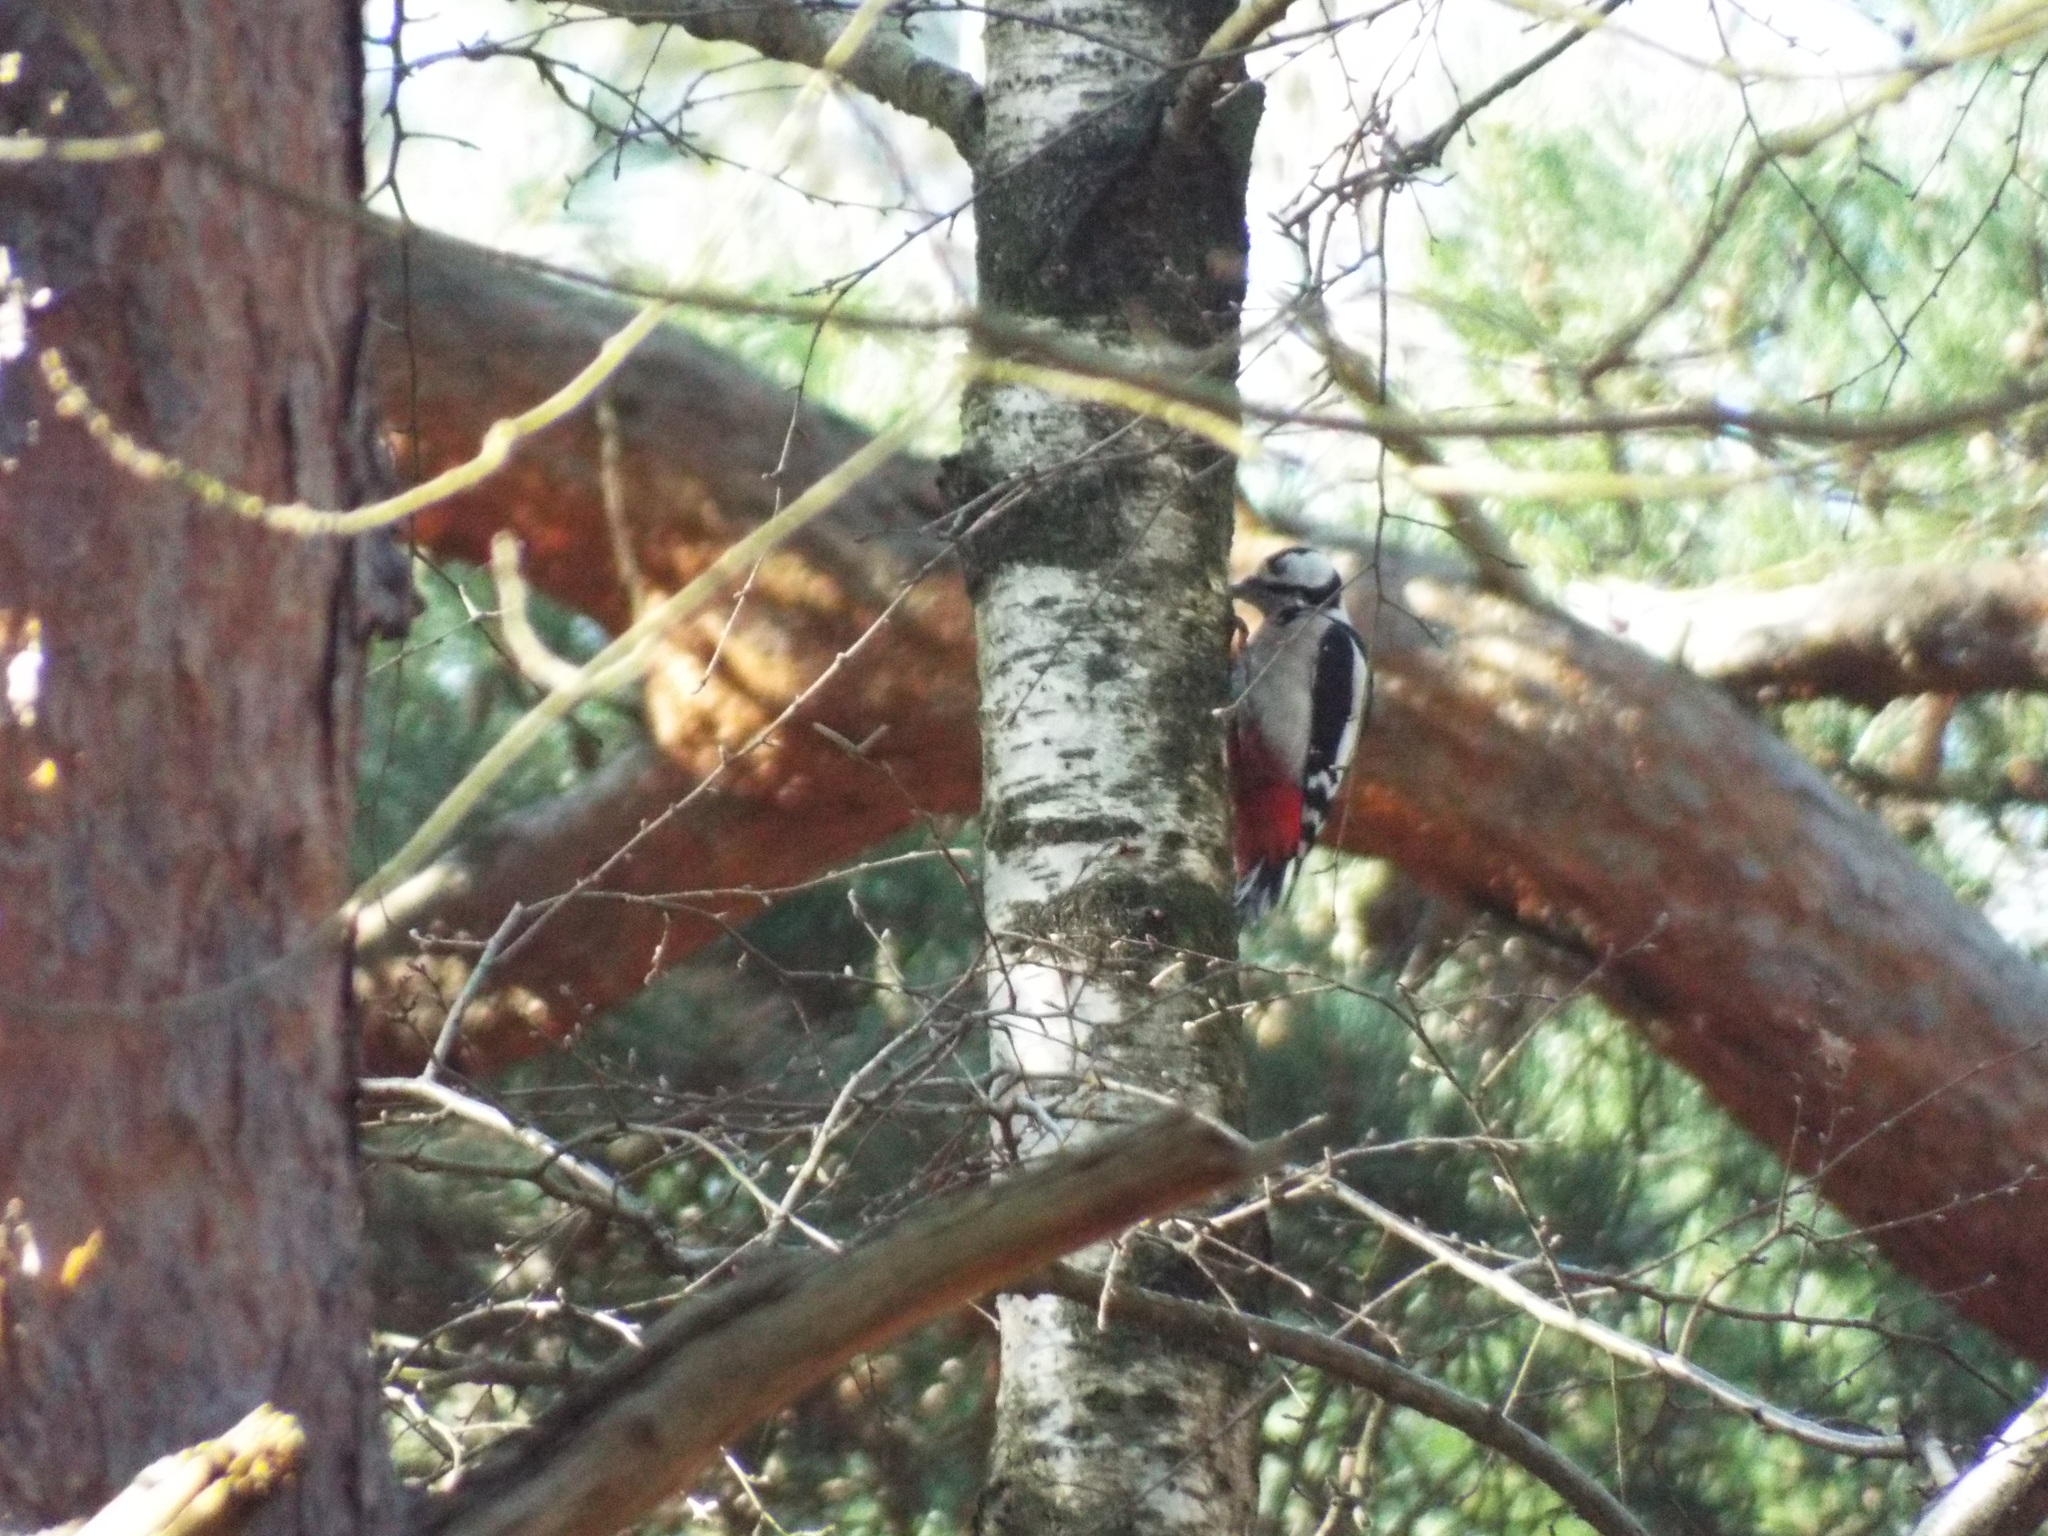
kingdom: Animalia
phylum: Chordata
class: Aves
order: Piciformes
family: Picidae
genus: Dendrocopos
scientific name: Dendrocopos major
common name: Great spotted woodpecker
